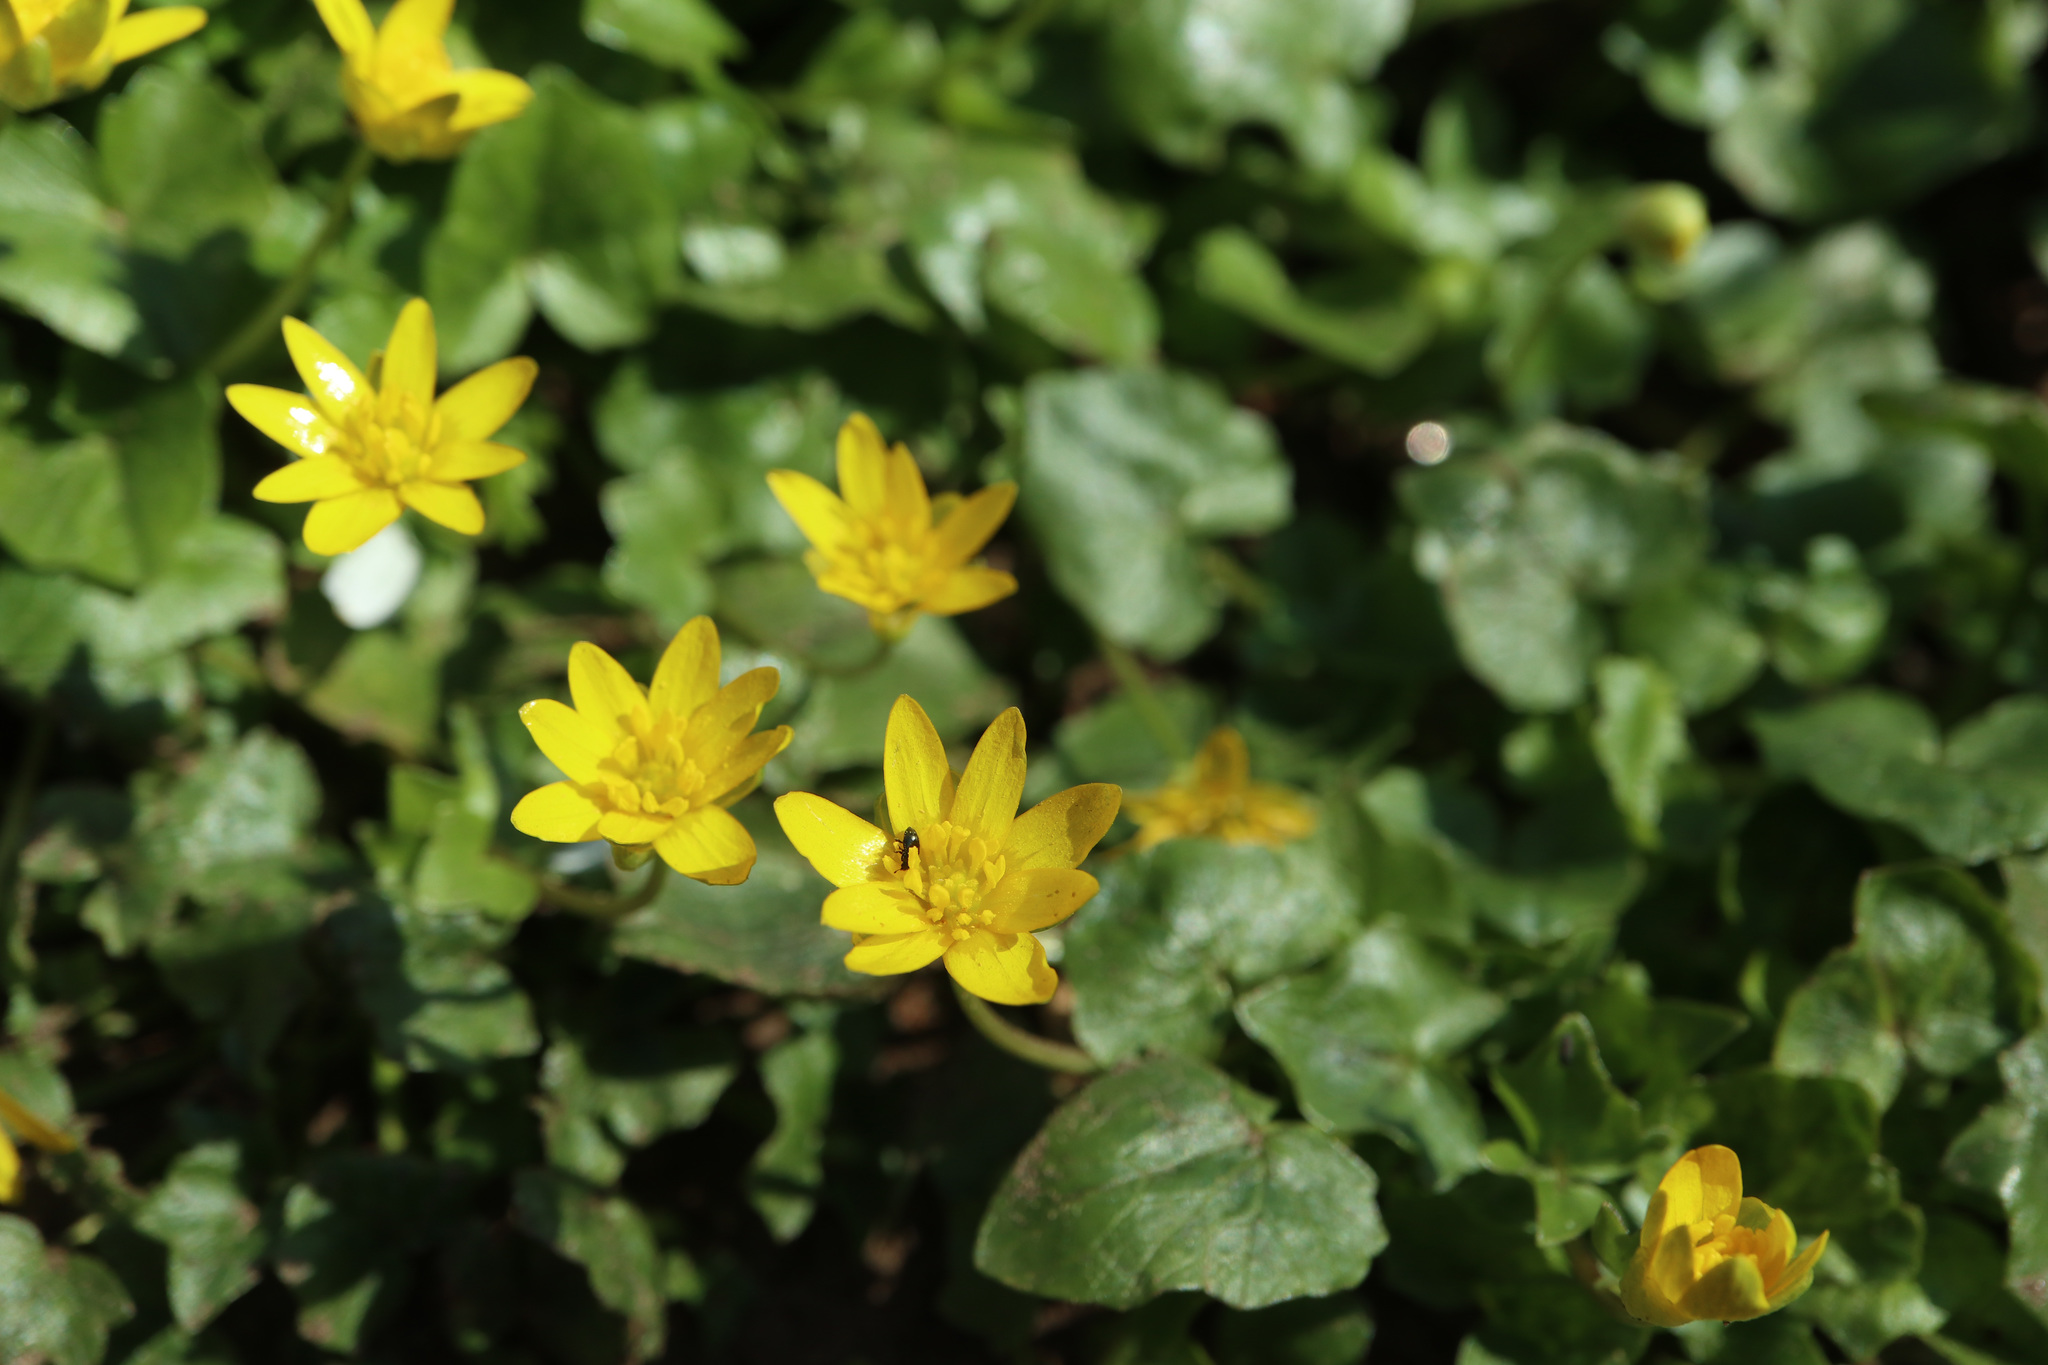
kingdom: Plantae
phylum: Tracheophyta
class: Magnoliopsida
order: Ranunculales
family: Ranunculaceae
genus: Ficaria
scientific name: Ficaria verna
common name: Lesser celandine
